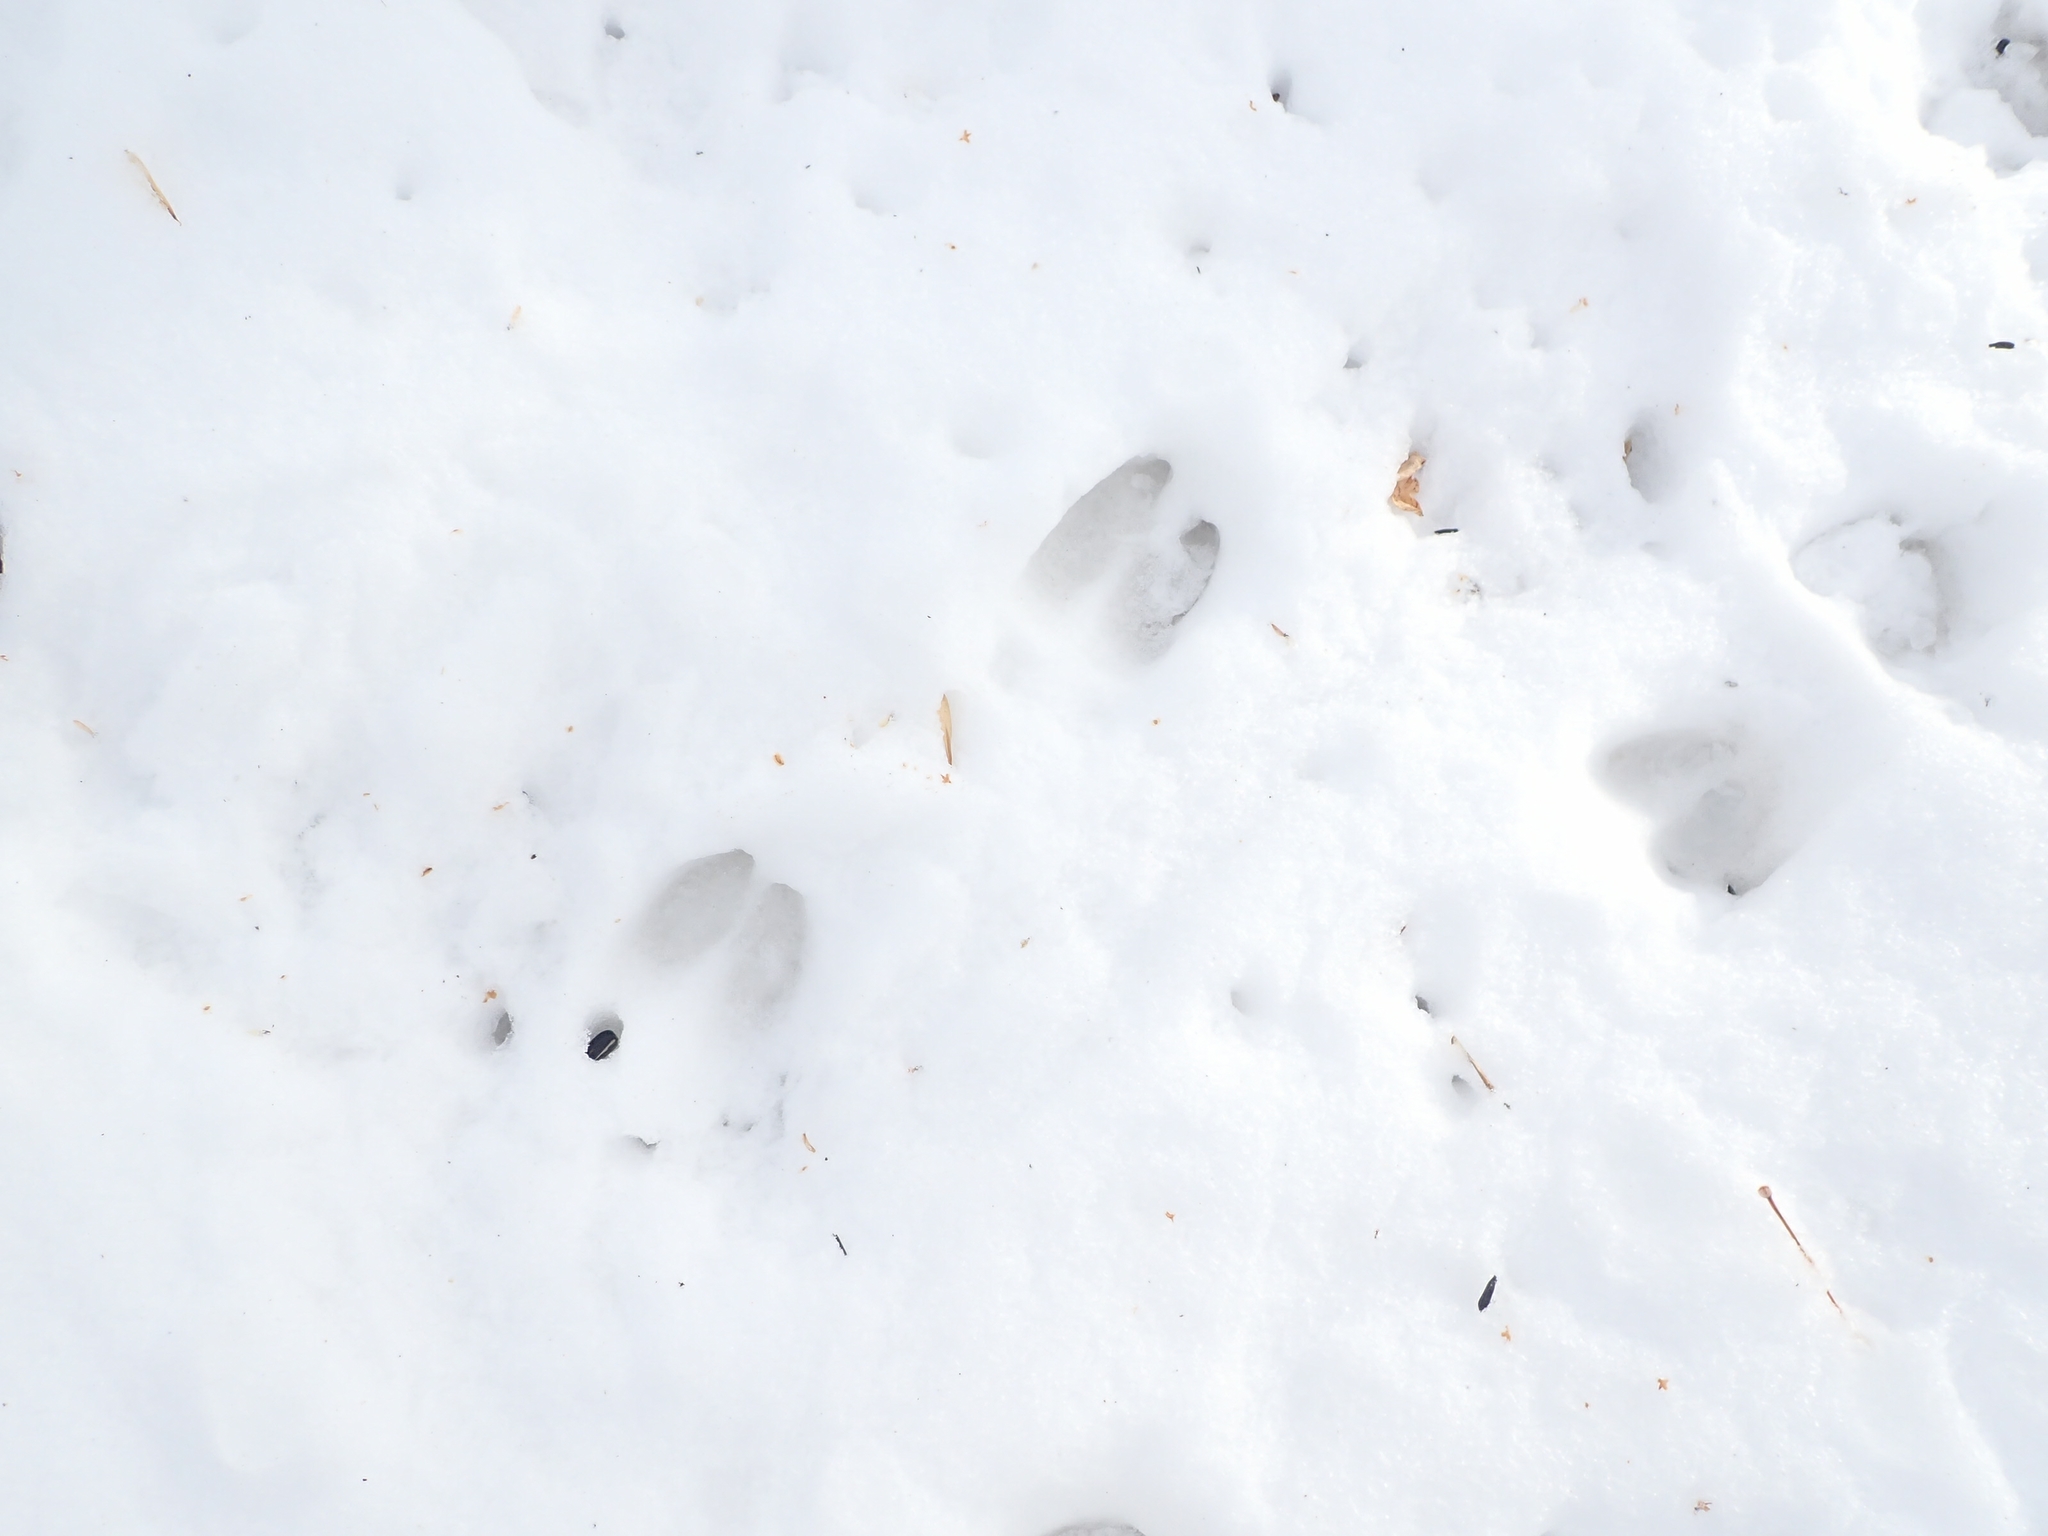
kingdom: Animalia
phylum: Chordata
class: Mammalia
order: Artiodactyla
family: Cervidae
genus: Odocoileus
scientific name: Odocoileus virginianus
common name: White-tailed deer
